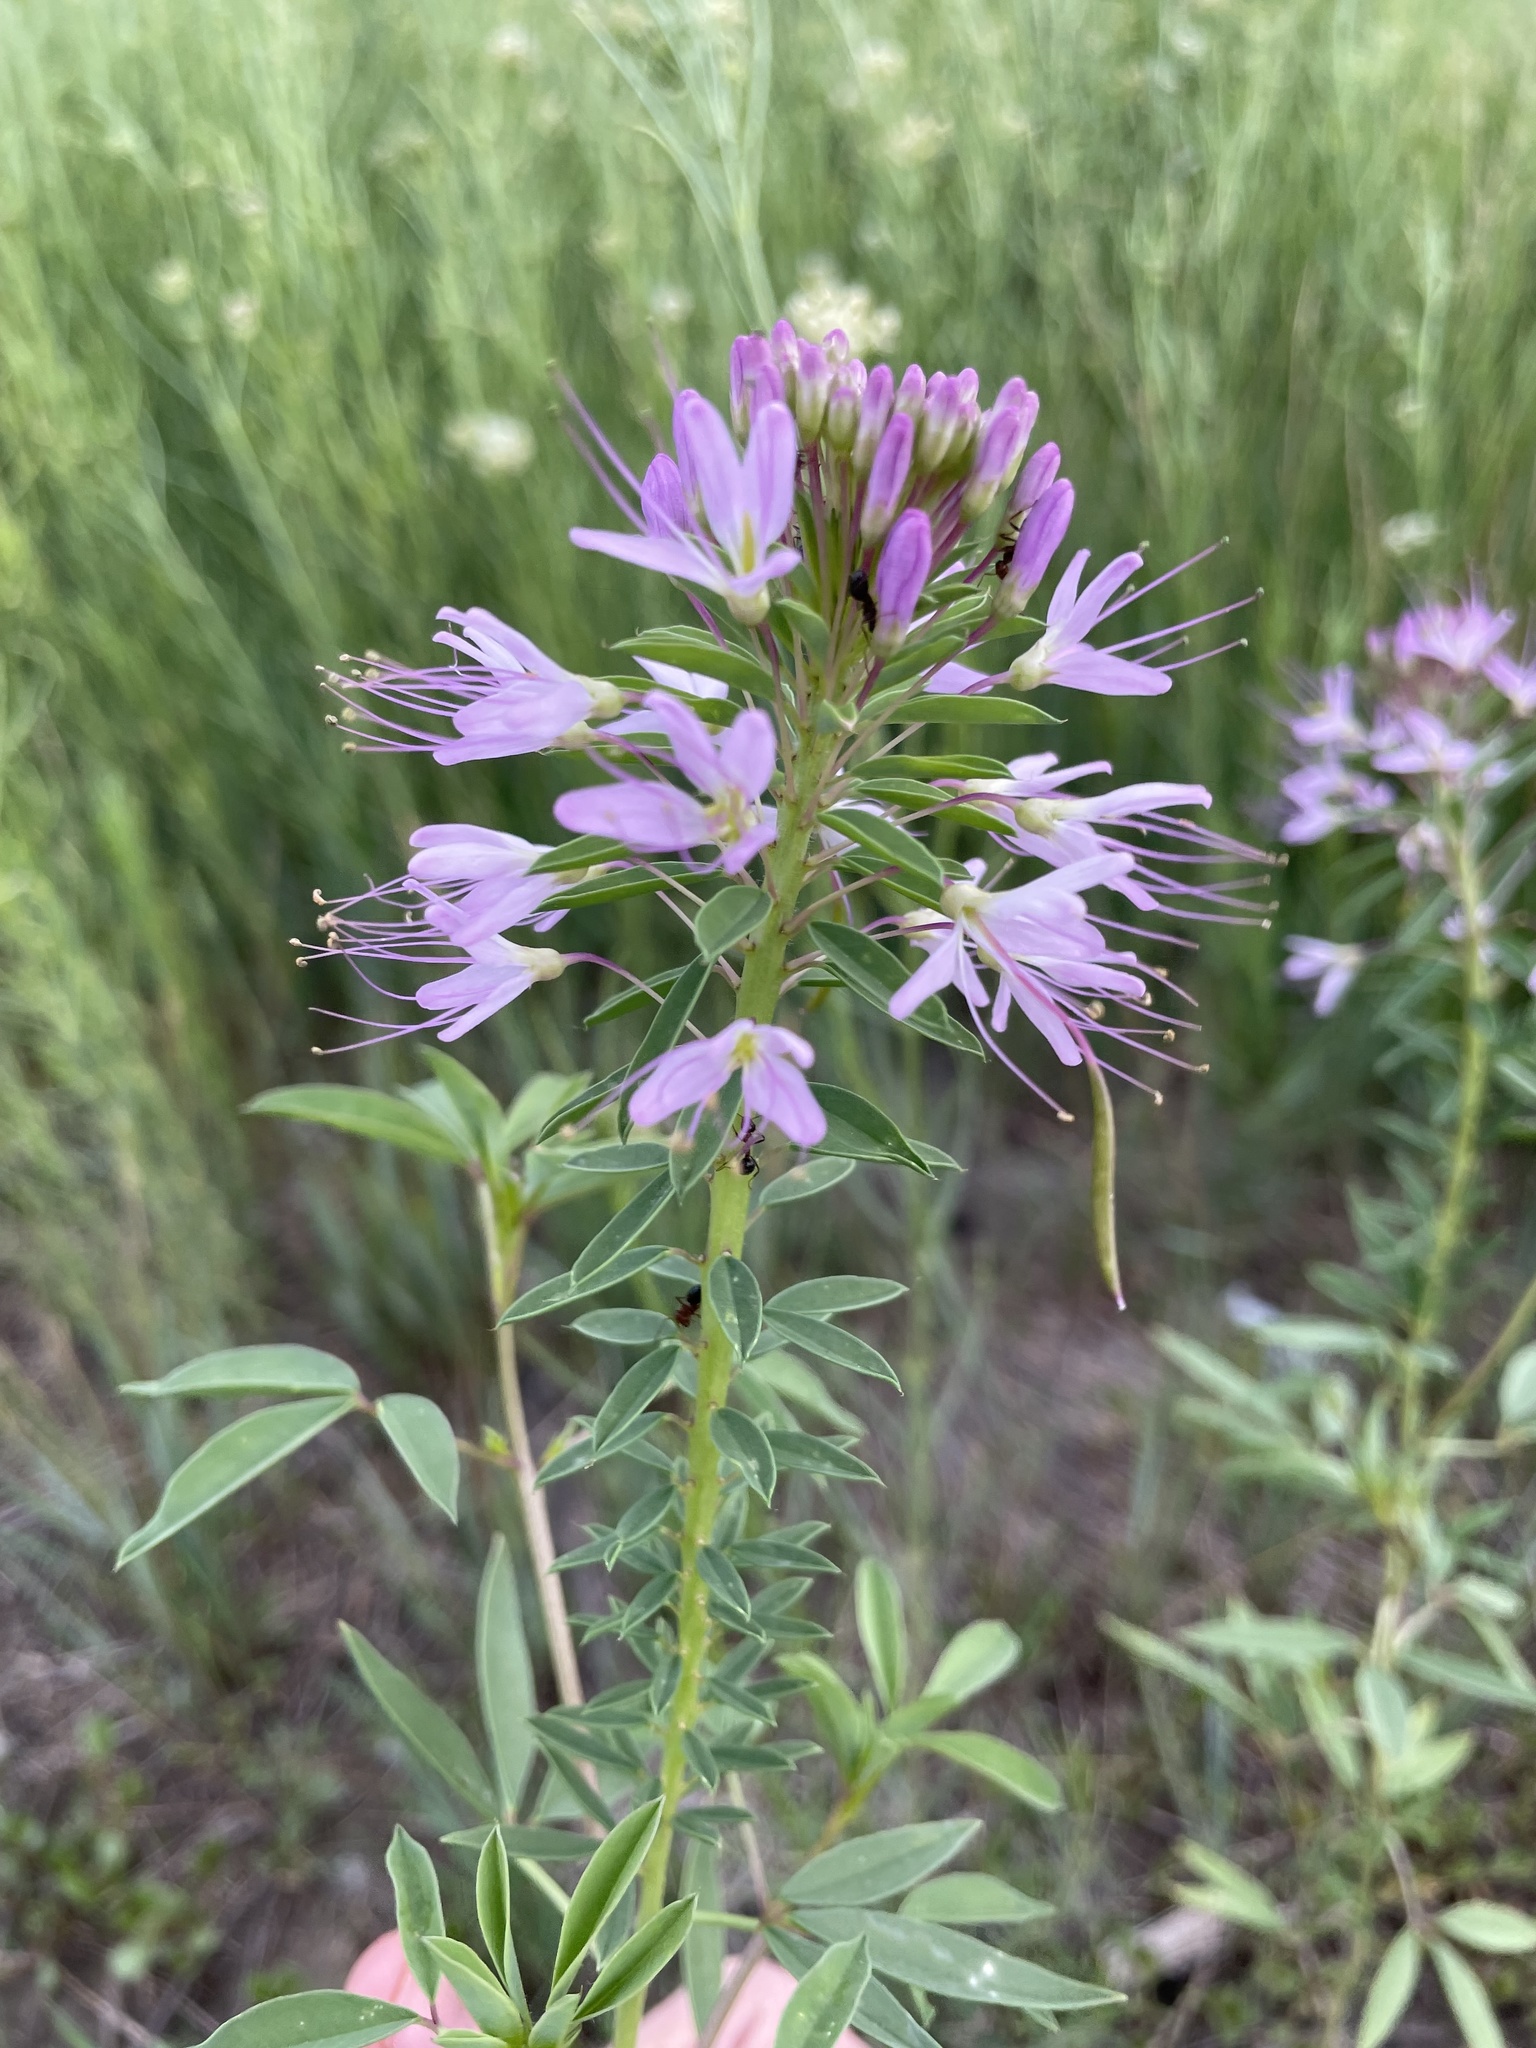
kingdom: Plantae
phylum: Tracheophyta
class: Magnoliopsida
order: Brassicales
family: Cleomaceae
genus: Cleomella
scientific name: Cleomella serrulata
